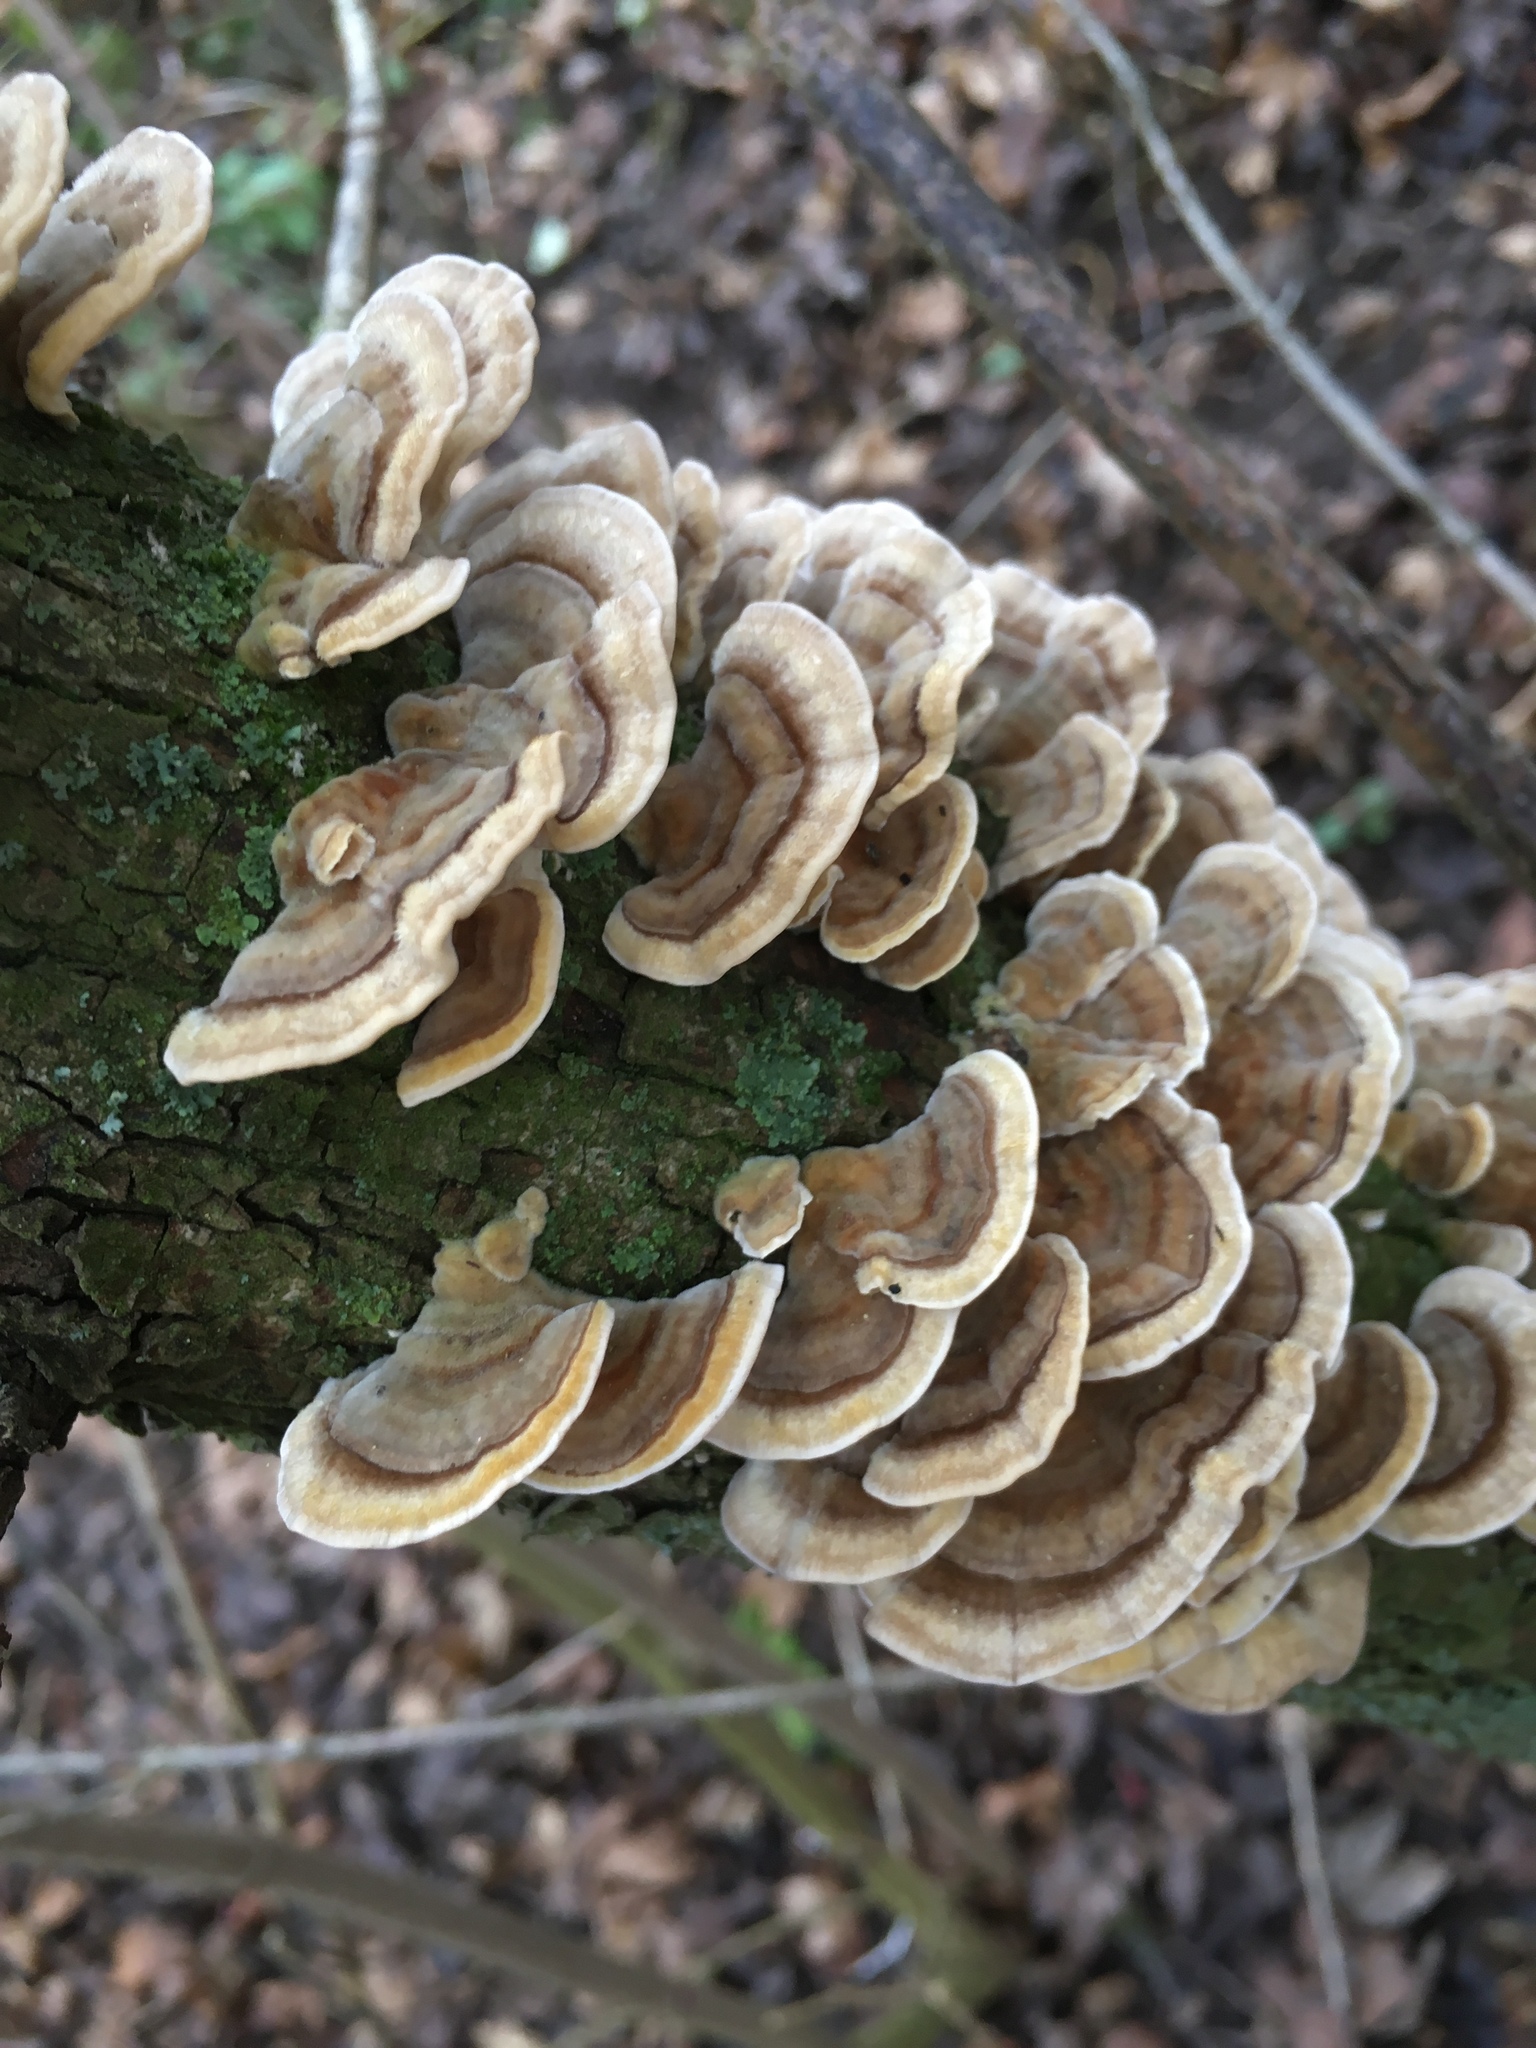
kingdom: Fungi
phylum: Basidiomycota
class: Agaricomycetes
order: Polyporales
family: Polyporaceae
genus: Trametes
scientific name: Trametes versicolor
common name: Turkeytail
